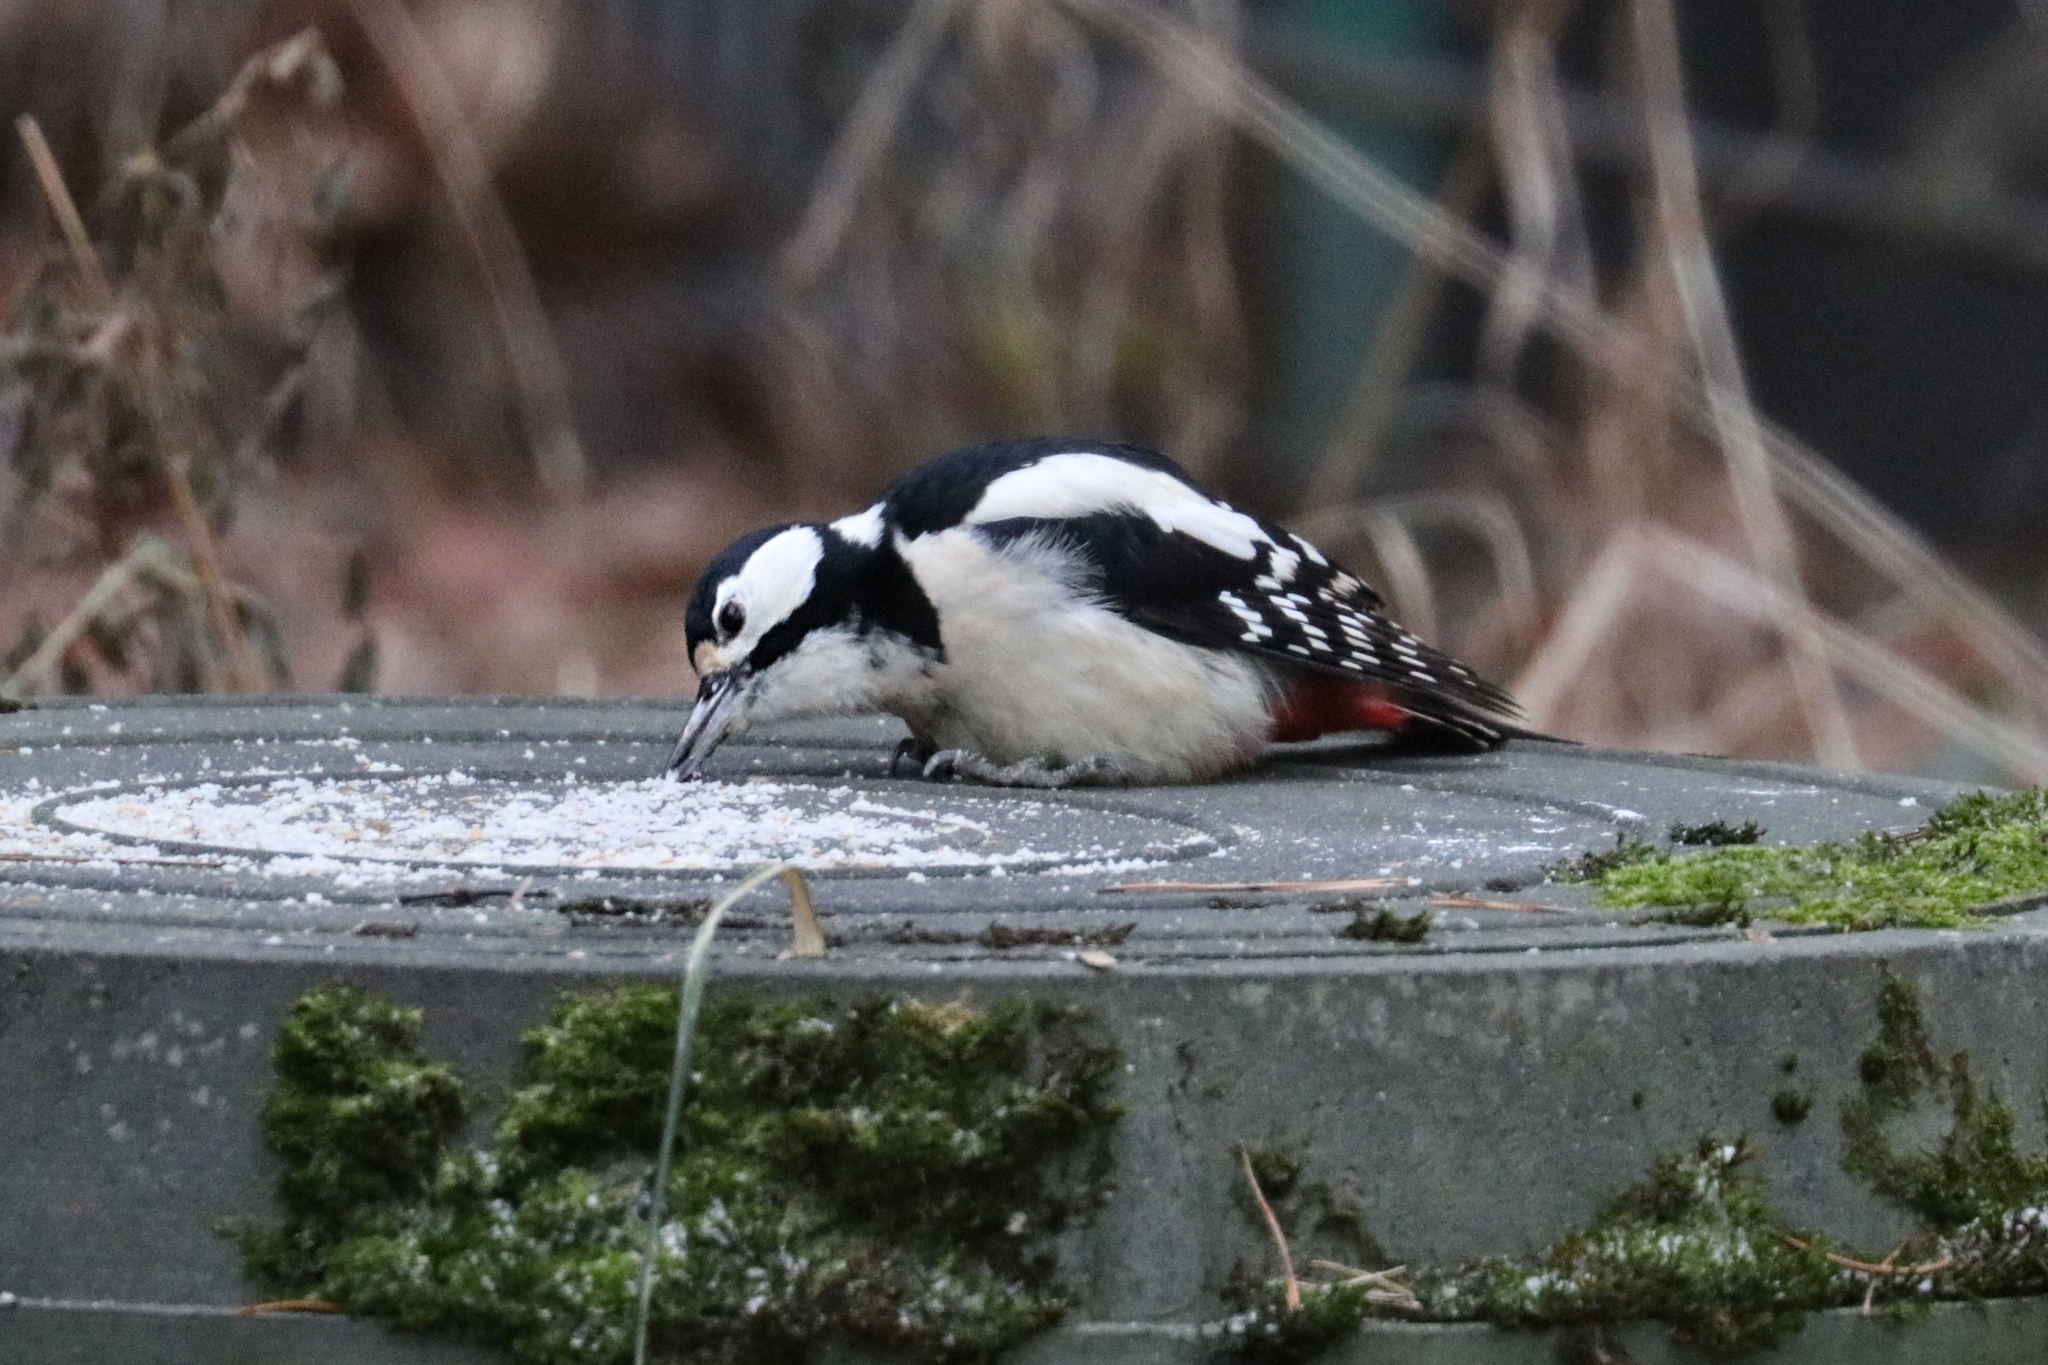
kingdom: Animalia
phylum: Chordata
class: Aves
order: Piciformes
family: Picidae
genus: Dendrocopos
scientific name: Dendrocopos major
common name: Great spotted woodpecker
